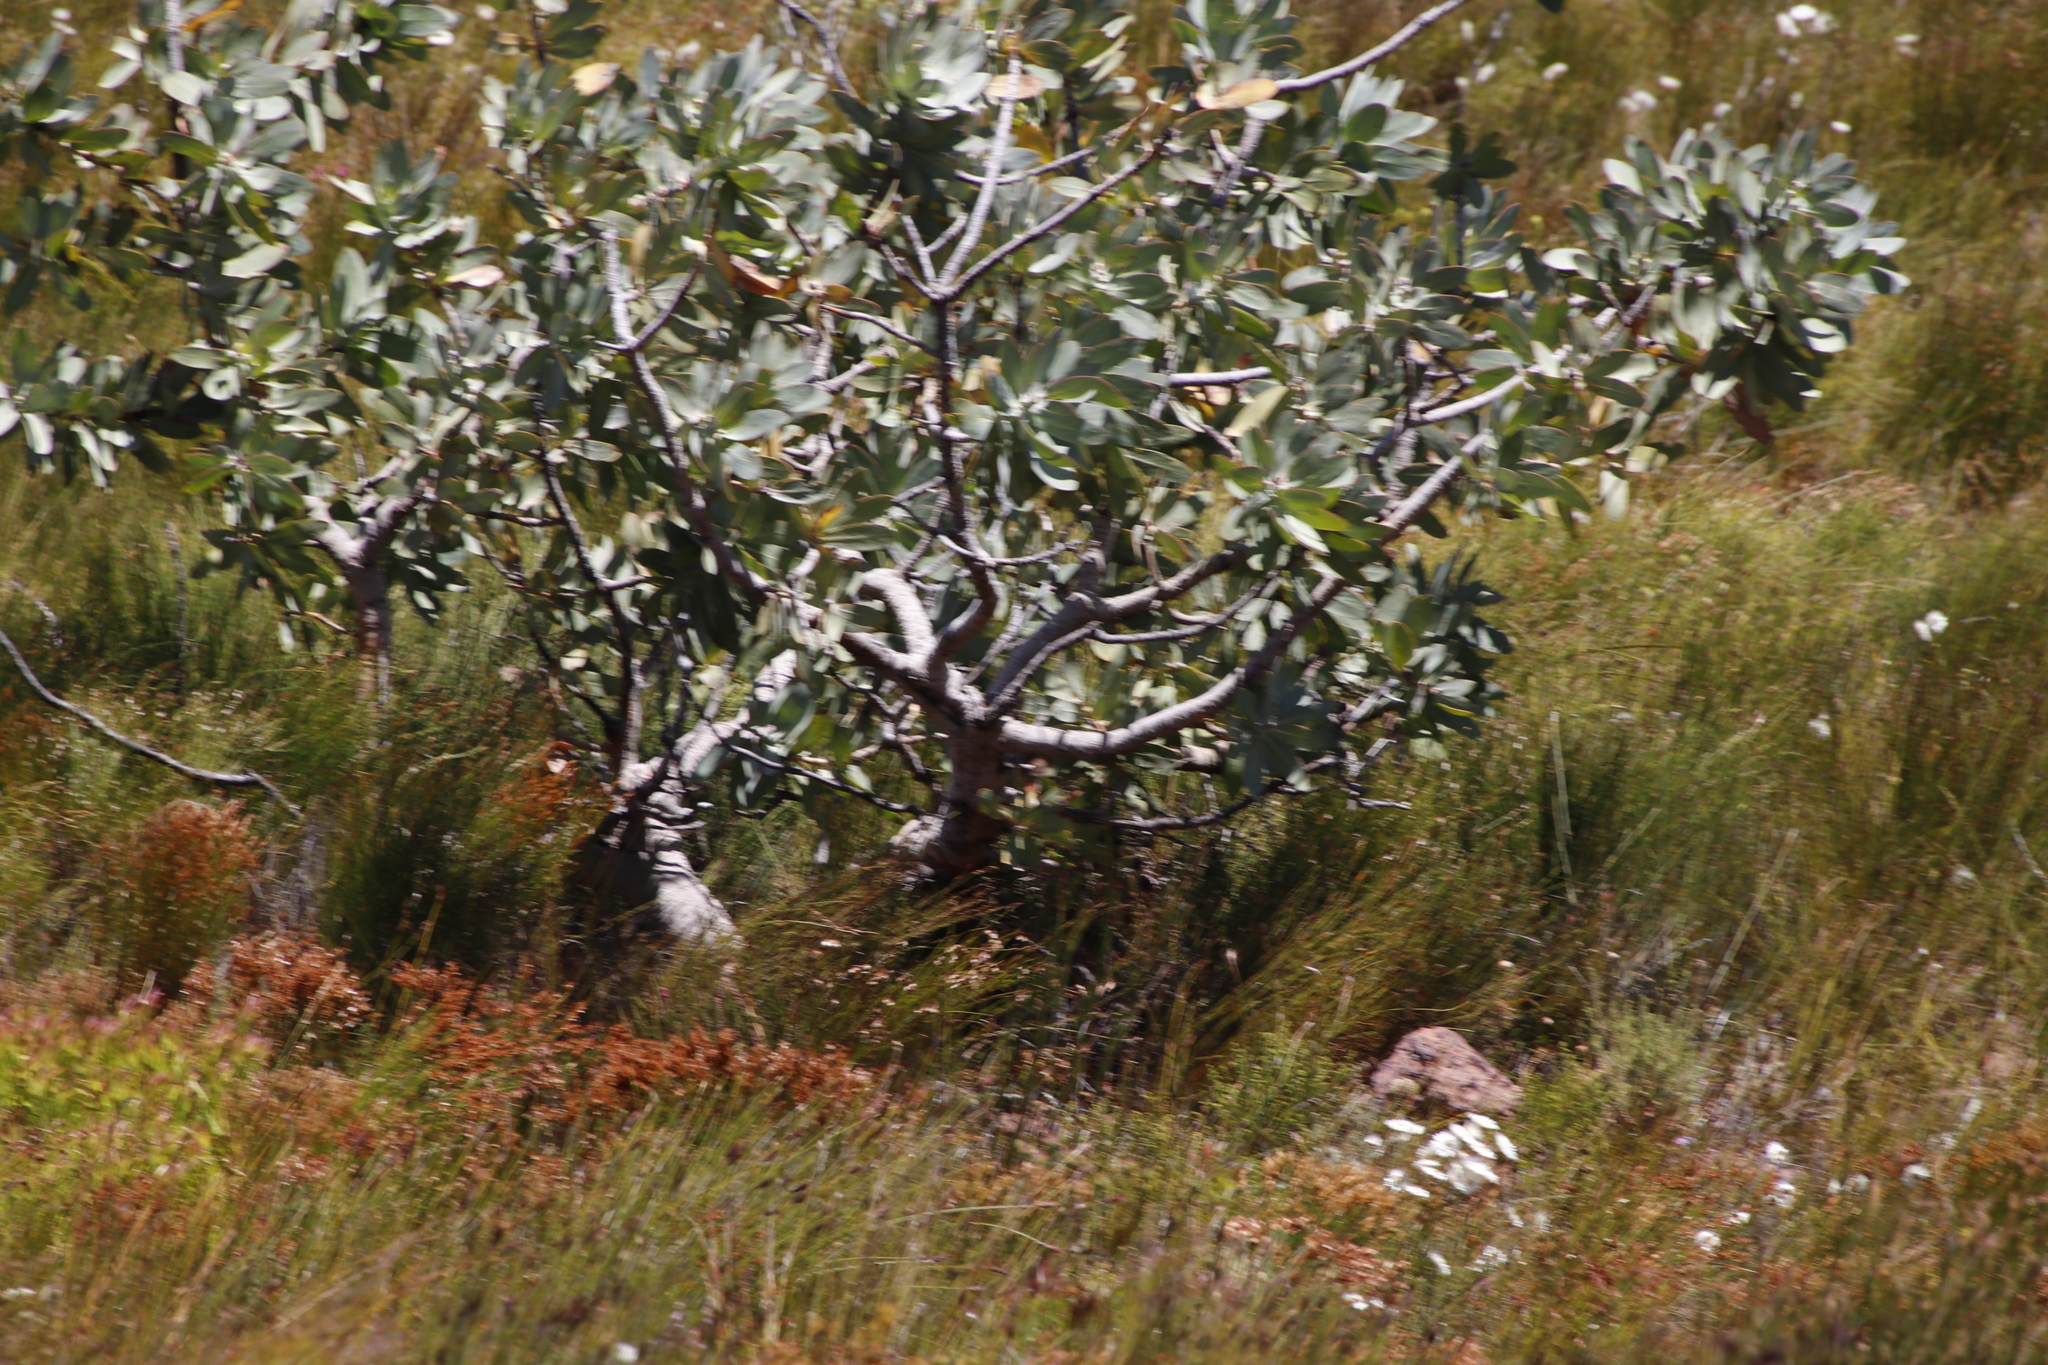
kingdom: Plantae
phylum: Tracheophyta
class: Magnoliopsida
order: Proteales
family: Proteaceae
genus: Protea
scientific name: Protea nitida
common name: Tree protea
